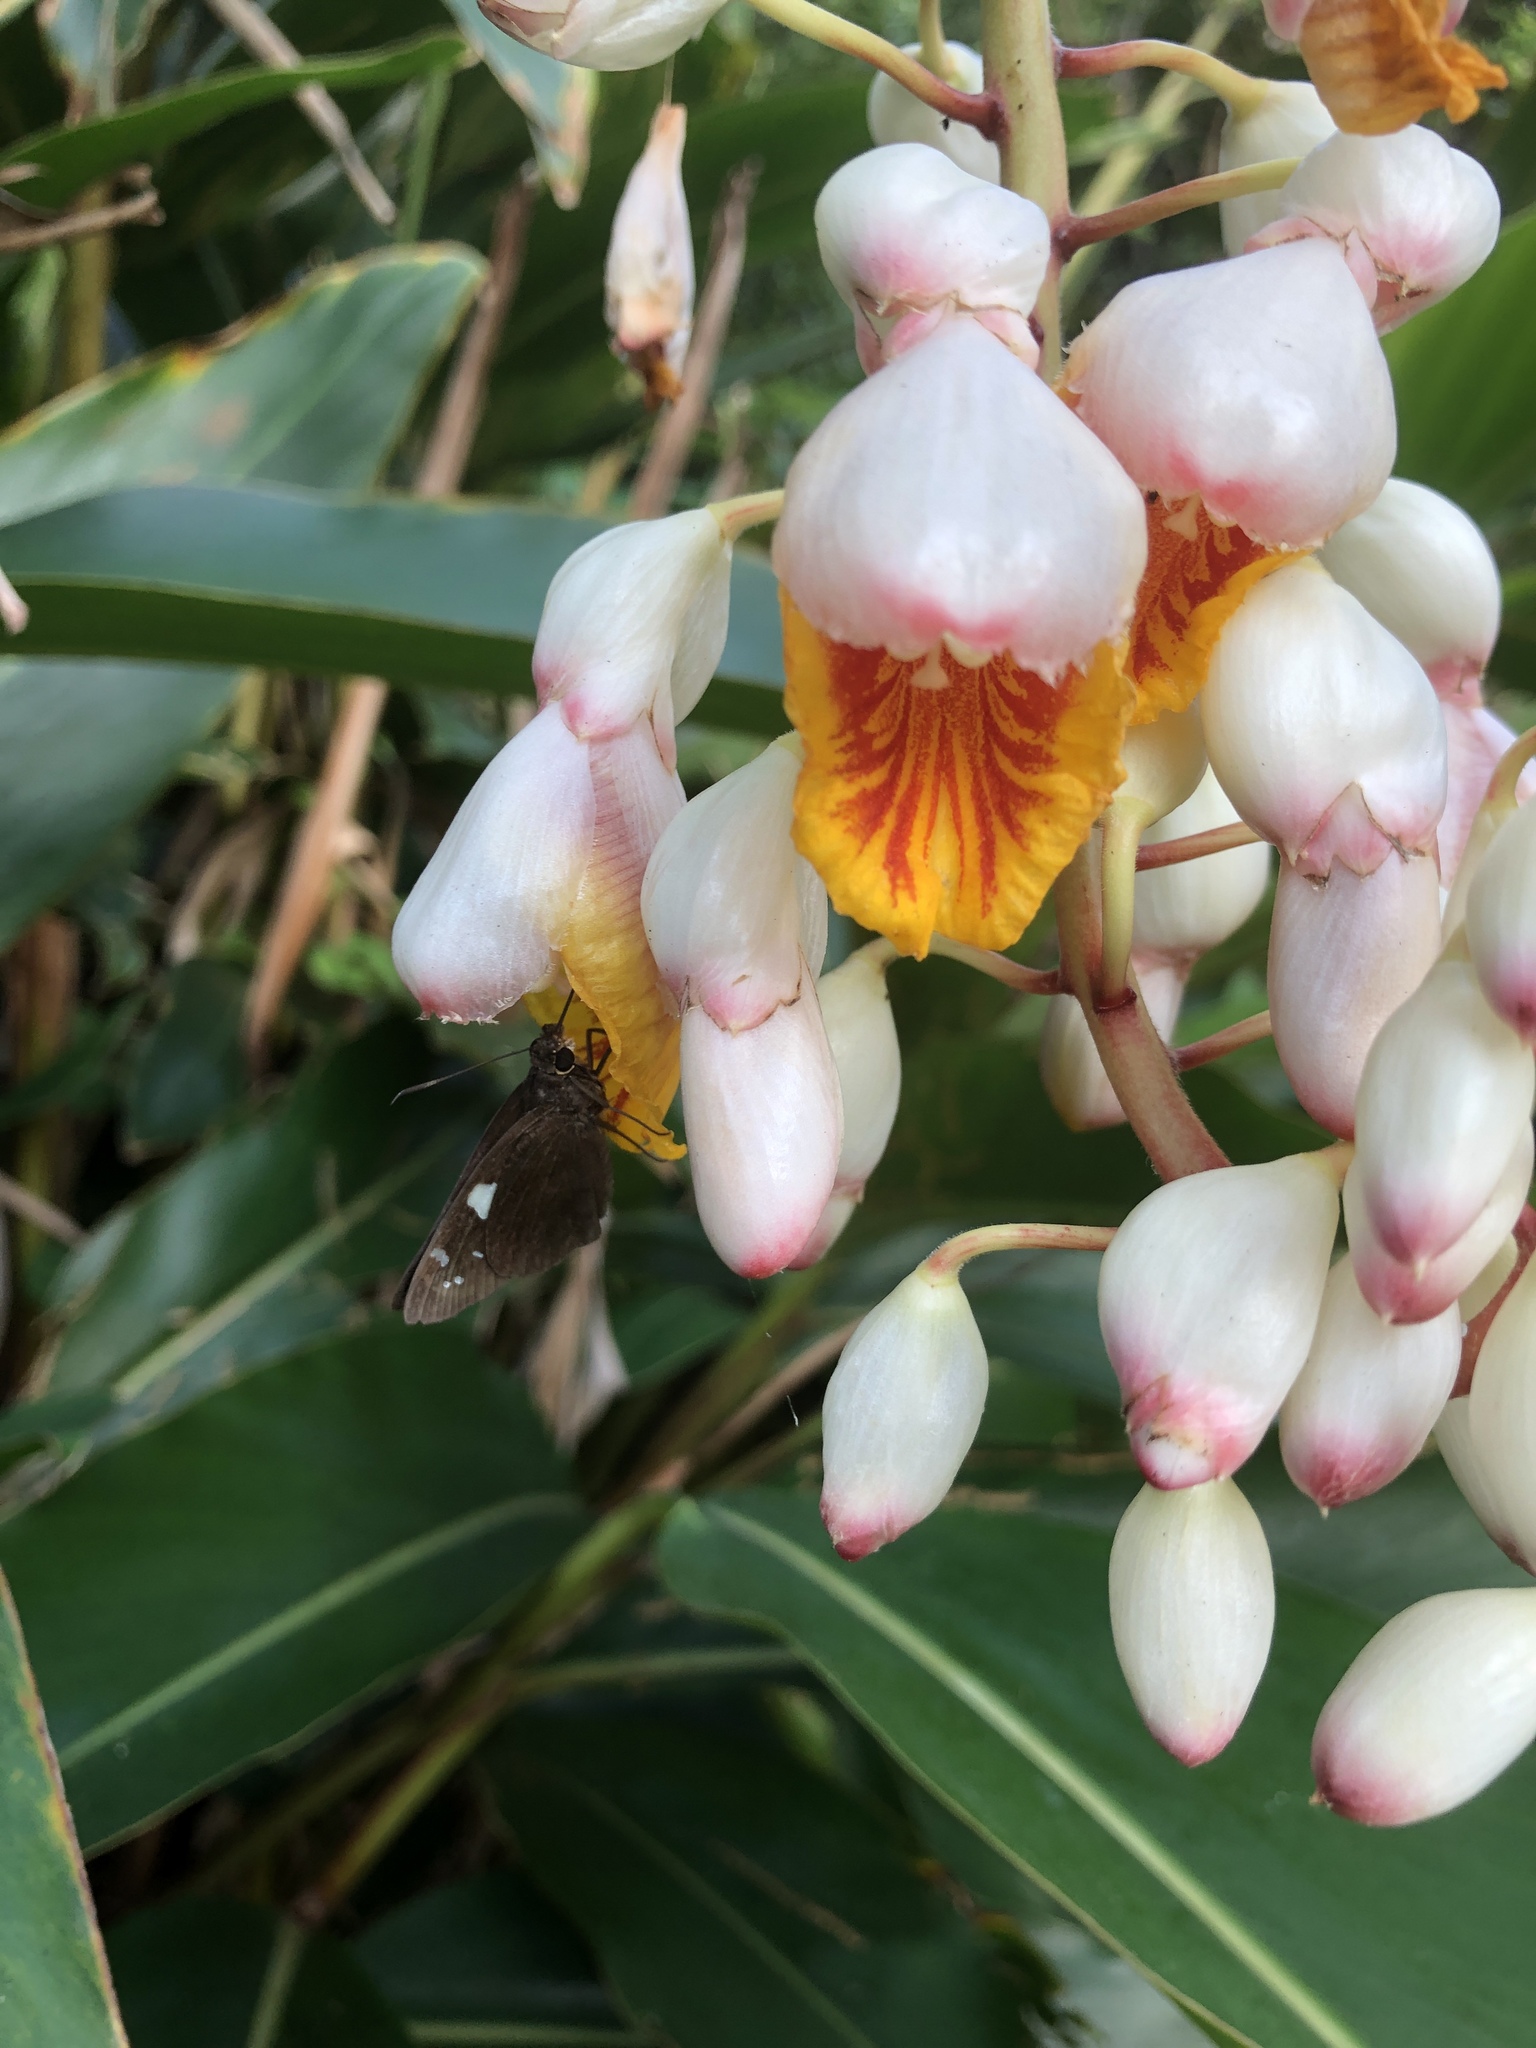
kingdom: Animalia
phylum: Arthropoda
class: Insecta
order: Lepidoptera
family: Hesperiidae
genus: Notocrypta
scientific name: Notocrypta curvifascia
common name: Restricted demon
